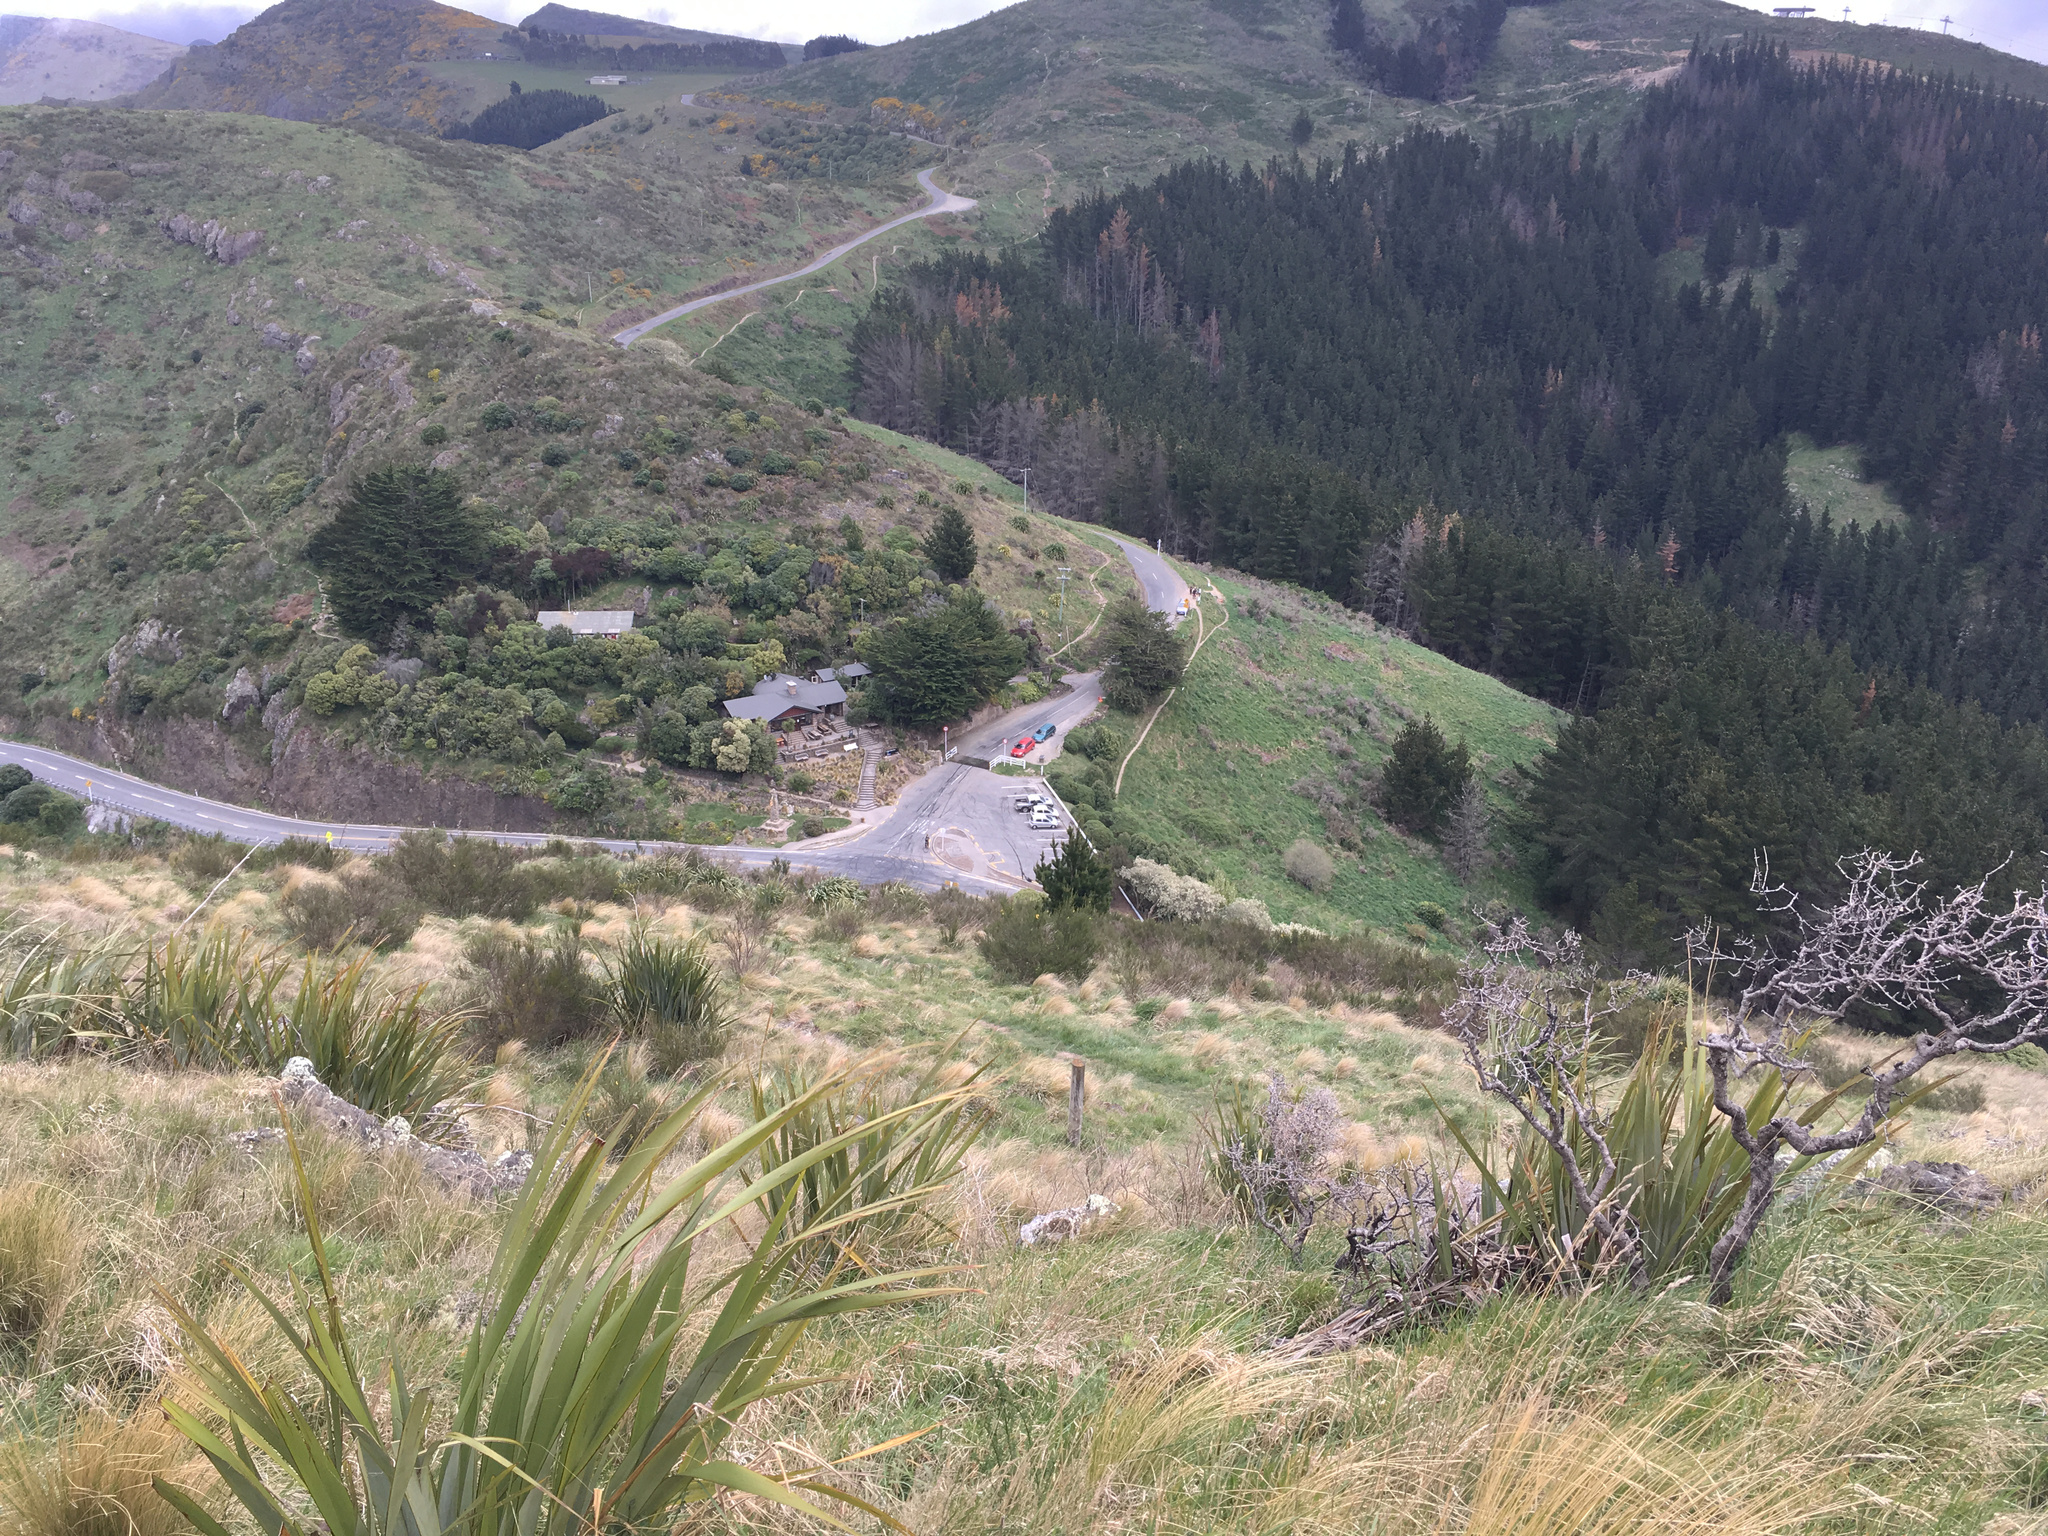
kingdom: Plantae
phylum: Tracheophyta
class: Liliopsida
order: Asparagales
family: Asphodelaceae
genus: Phormium
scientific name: Phormium tenax
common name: New zealand flax
